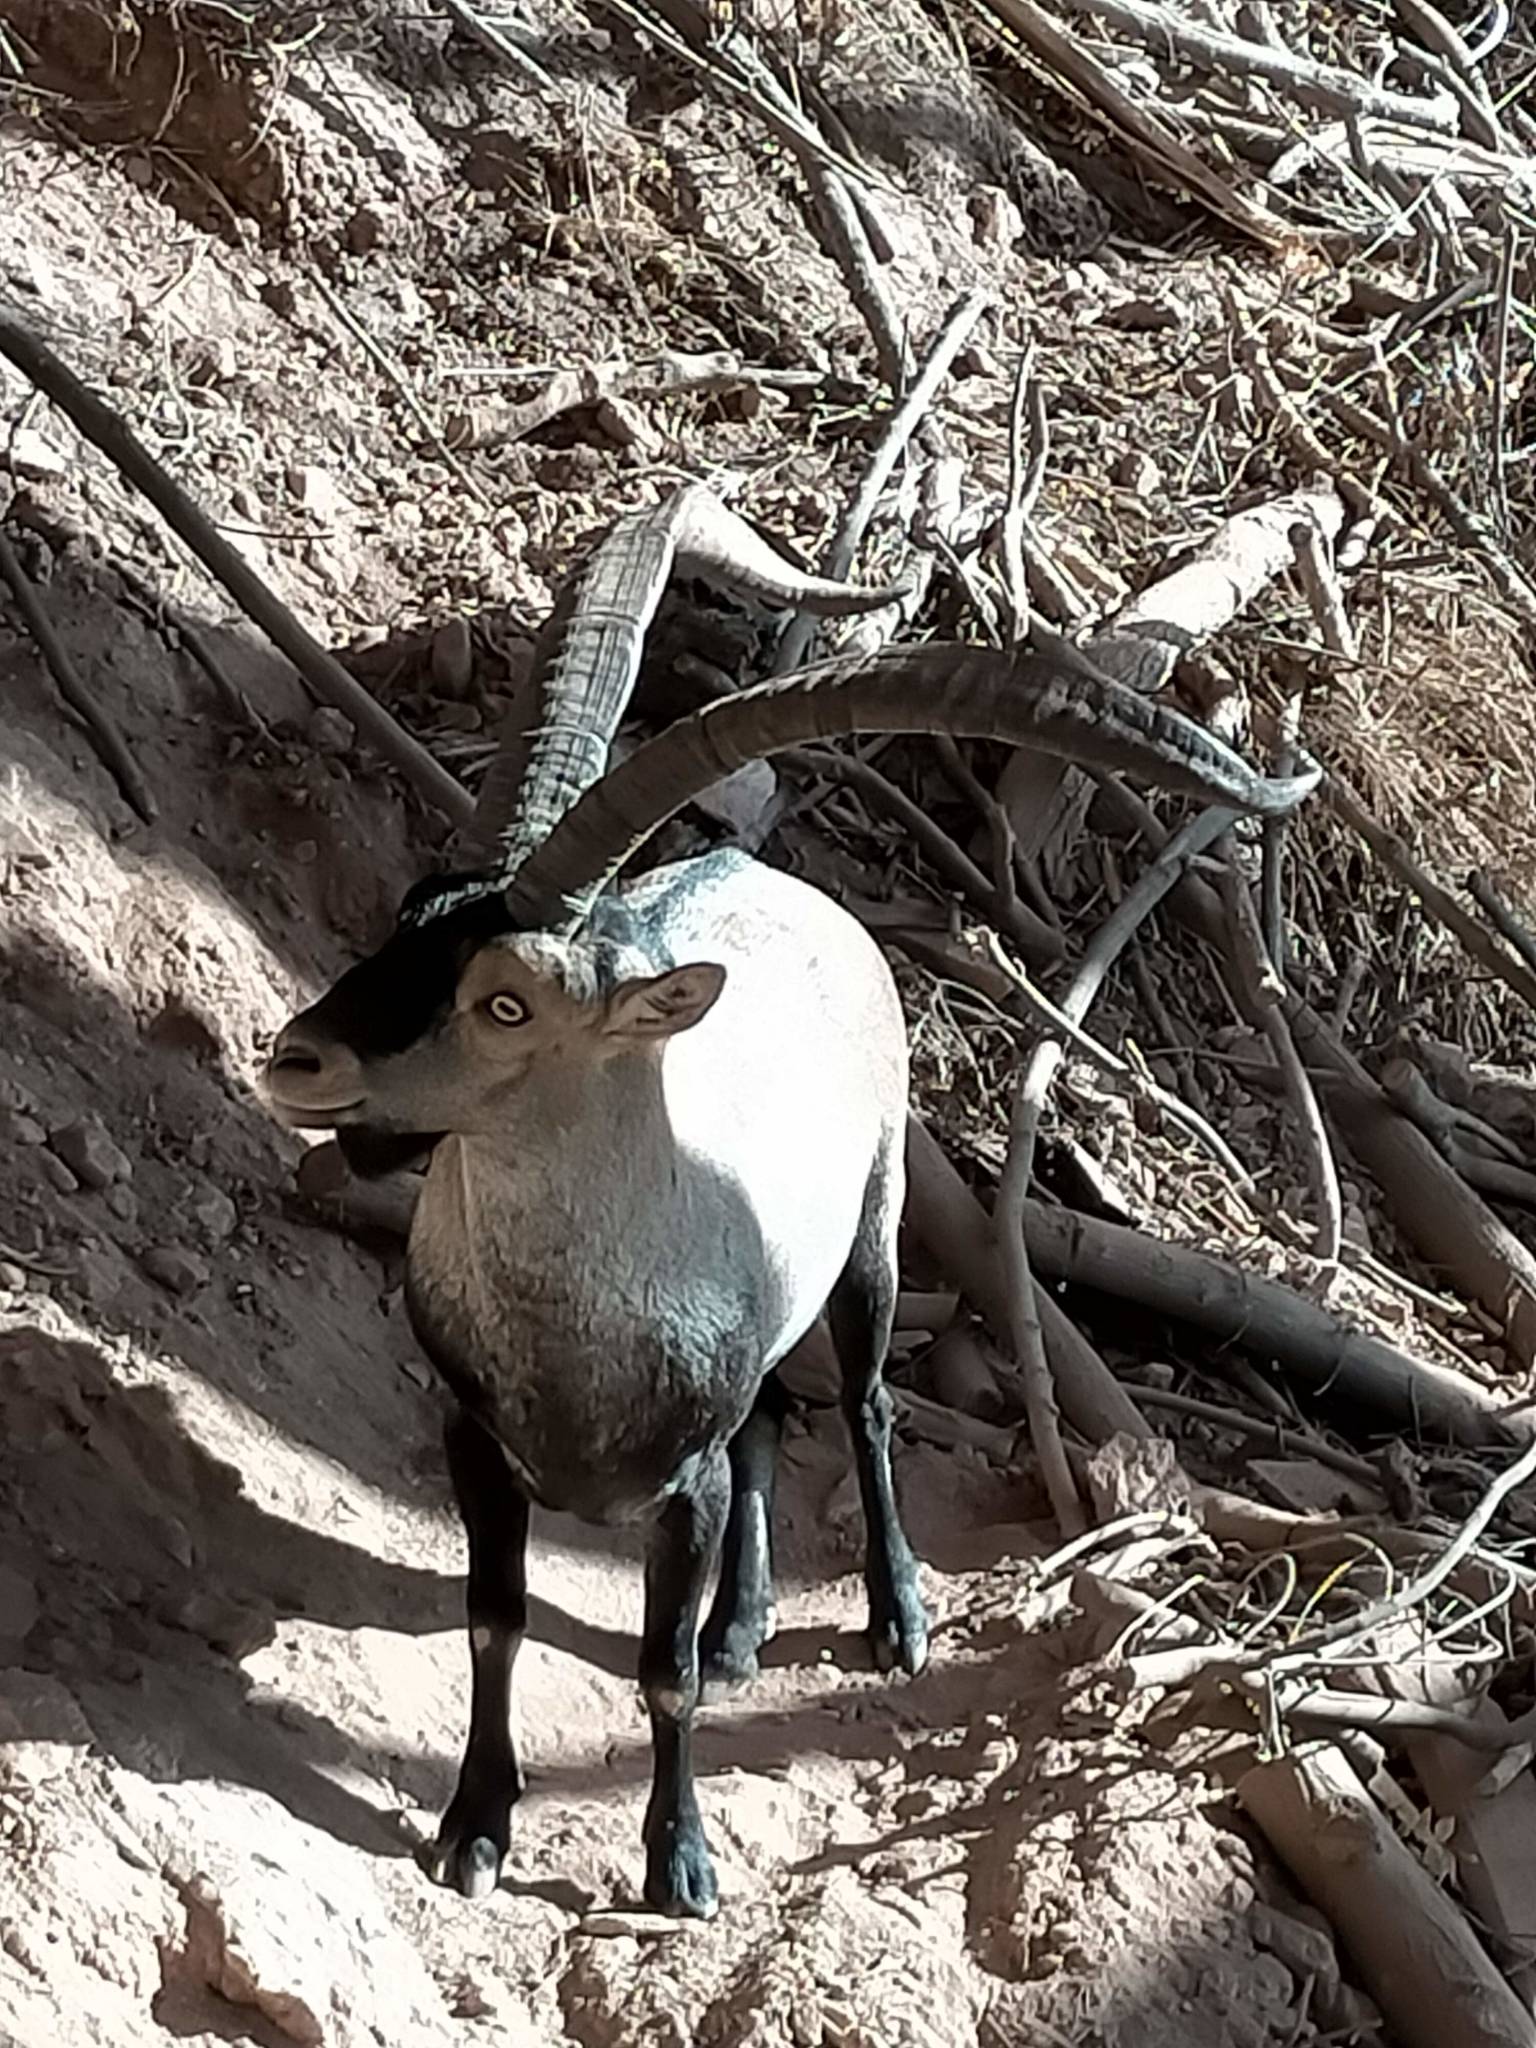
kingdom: Animalia
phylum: Chordata
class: Mammalia
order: Artiodactyla
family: Bovidae
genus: Capra
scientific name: Capra pyrenaica
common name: Spanish ibex
